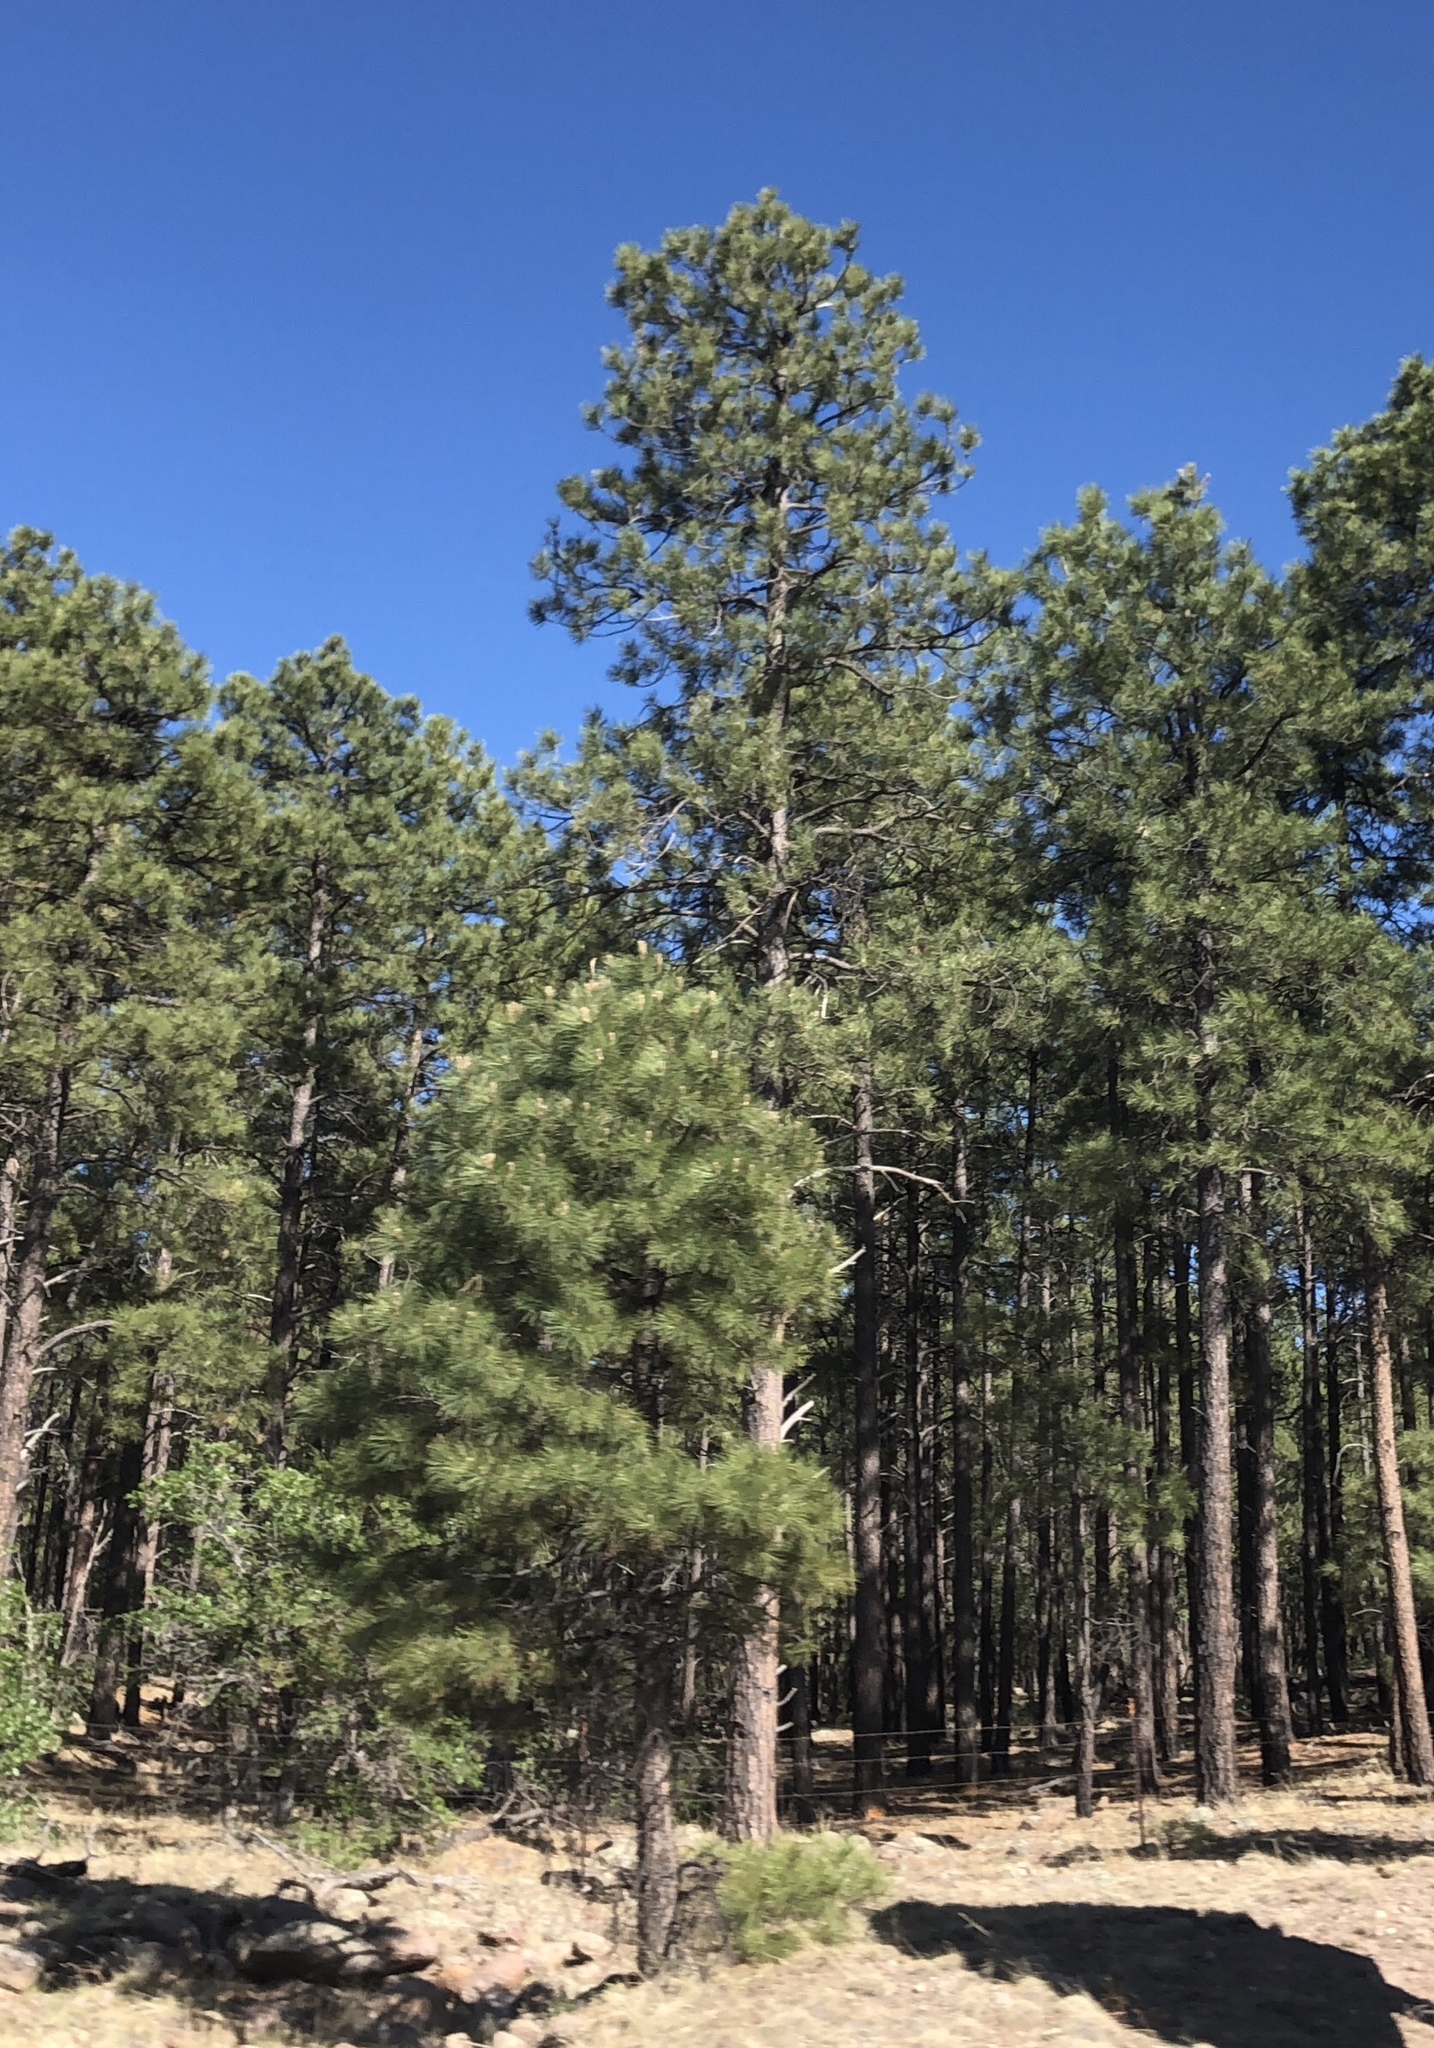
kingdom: Plantae
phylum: Tracheophyta
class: Pinopsida
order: Pinales
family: Pinaceae
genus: Pinus
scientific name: Pinus ponderosa
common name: Western yellow-pine
